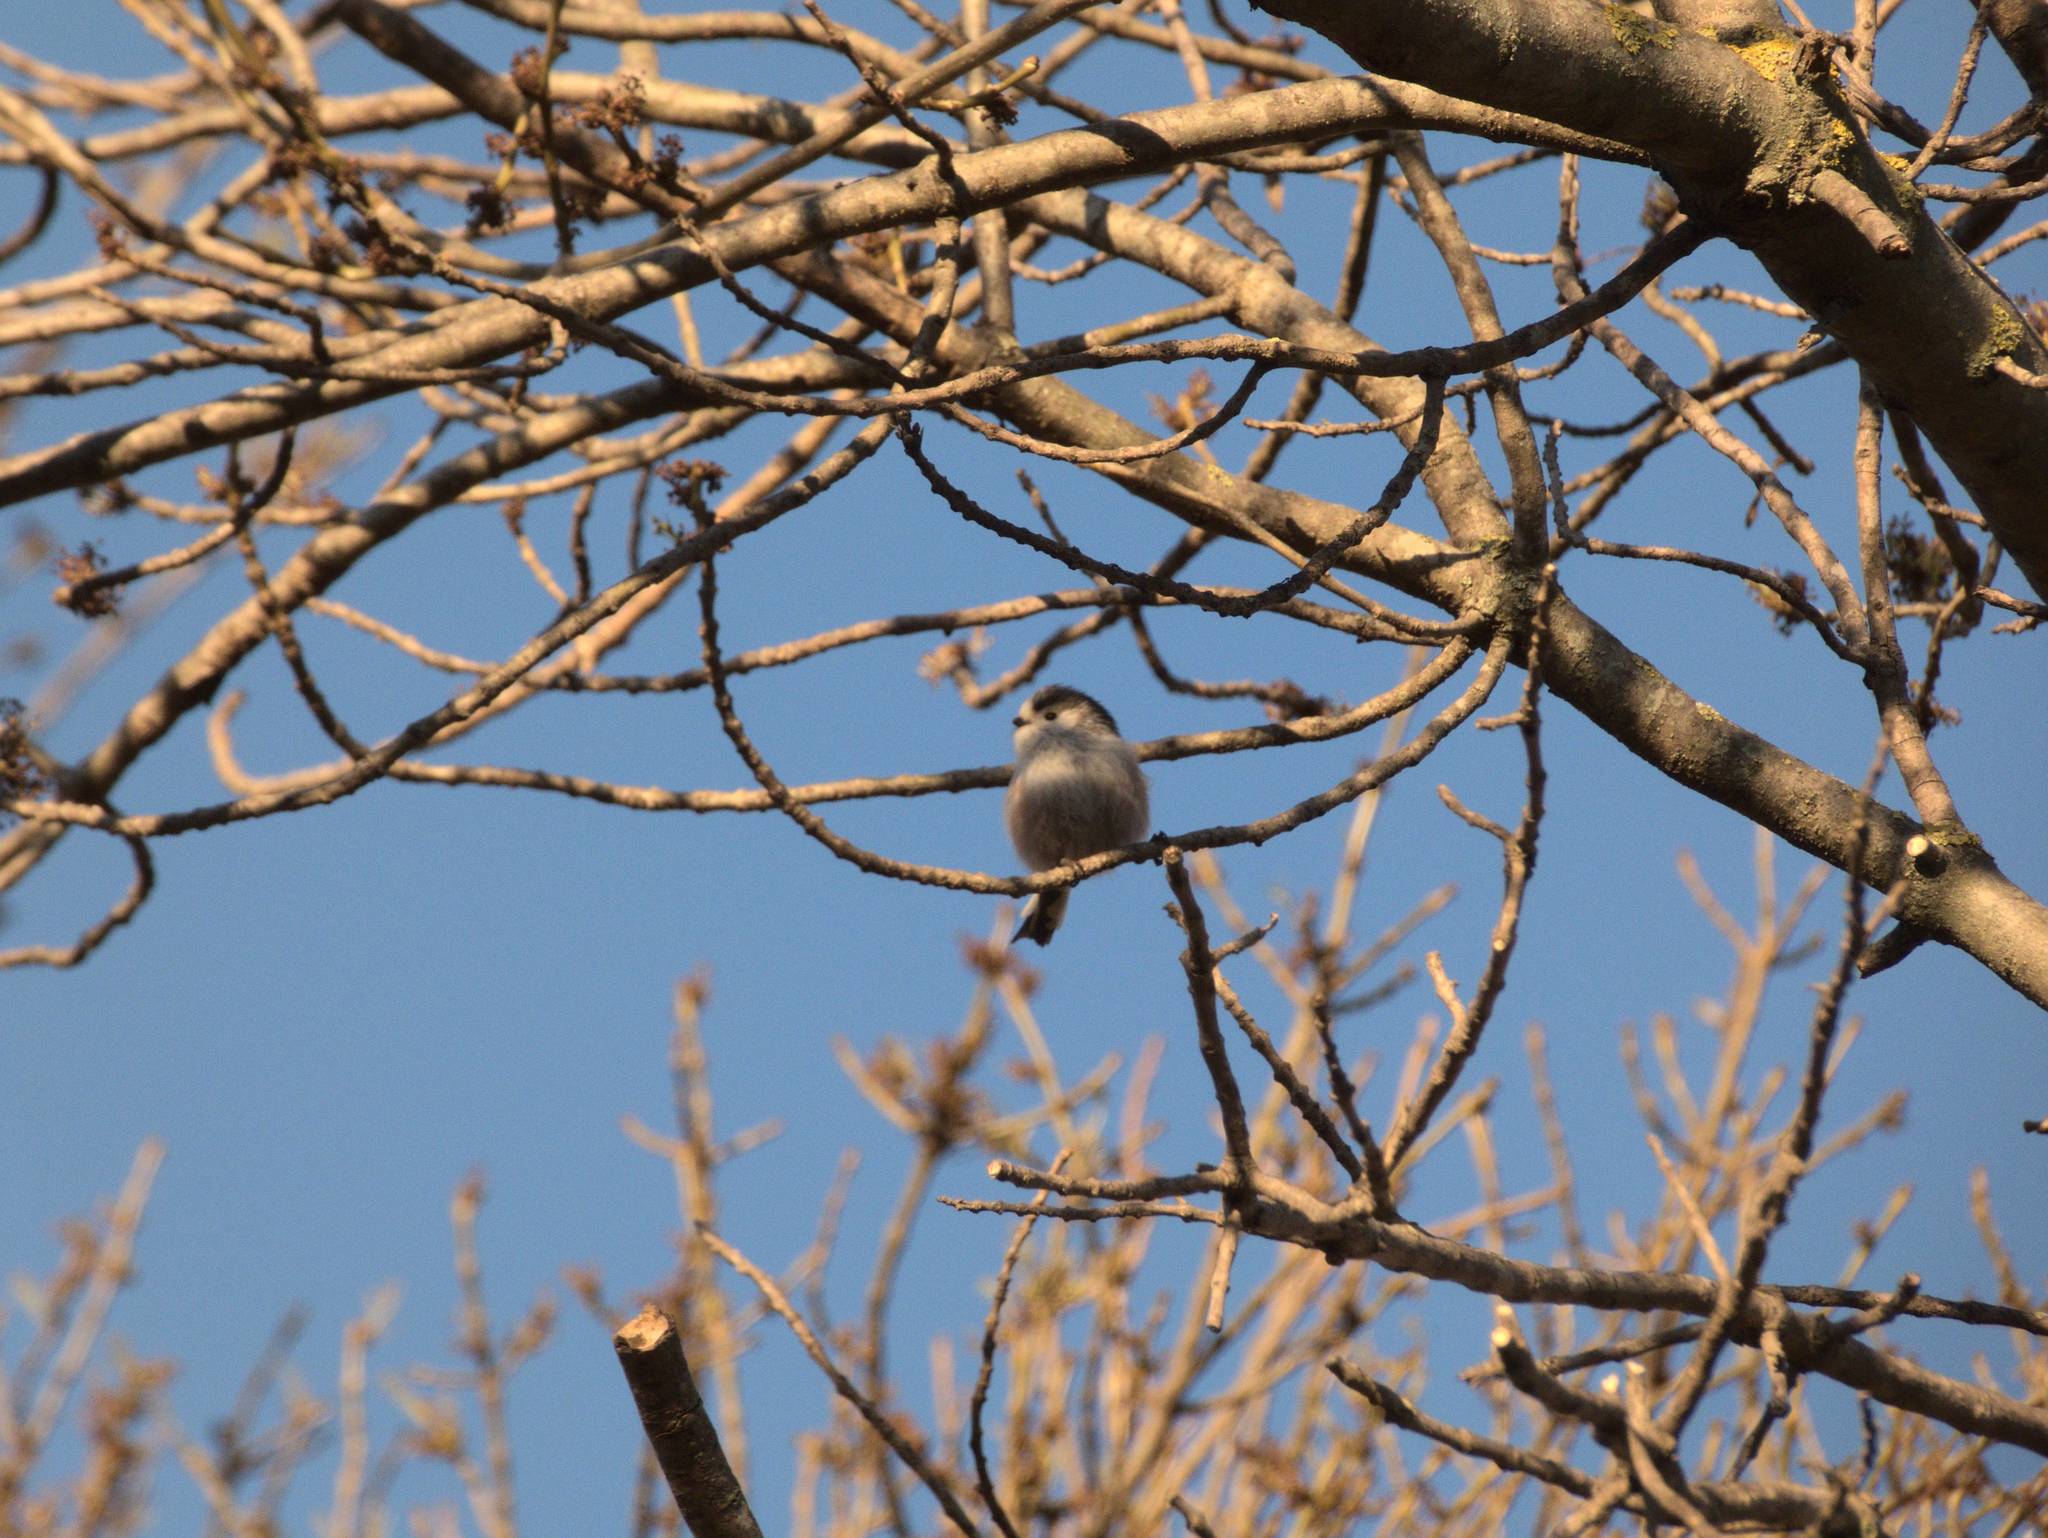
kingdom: Animalia
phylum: Chordata
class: Aves
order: Passeriformes
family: Aegithalidae
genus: Aegithalos
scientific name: Aegithalos caudatus
